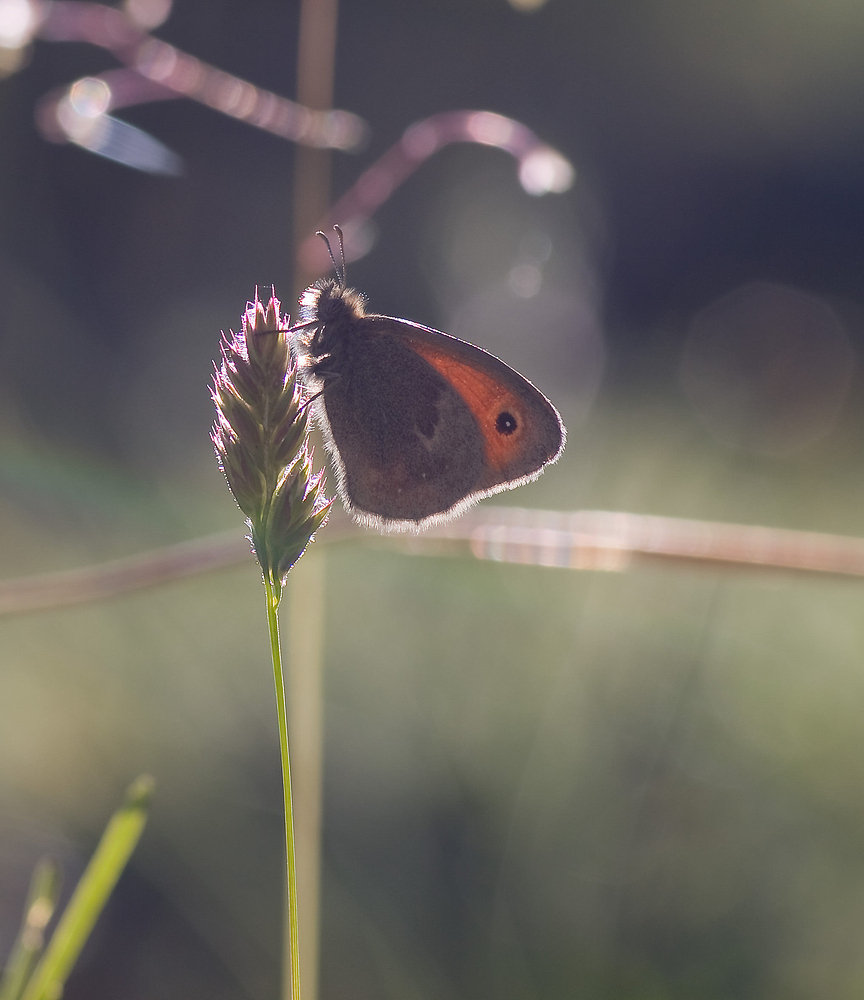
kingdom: Animalia
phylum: Arthropoda
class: Insecta
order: Lepidoptera
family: Nymphalidae
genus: Coenonympha
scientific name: Coenonympha pamphilus
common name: Small heath
